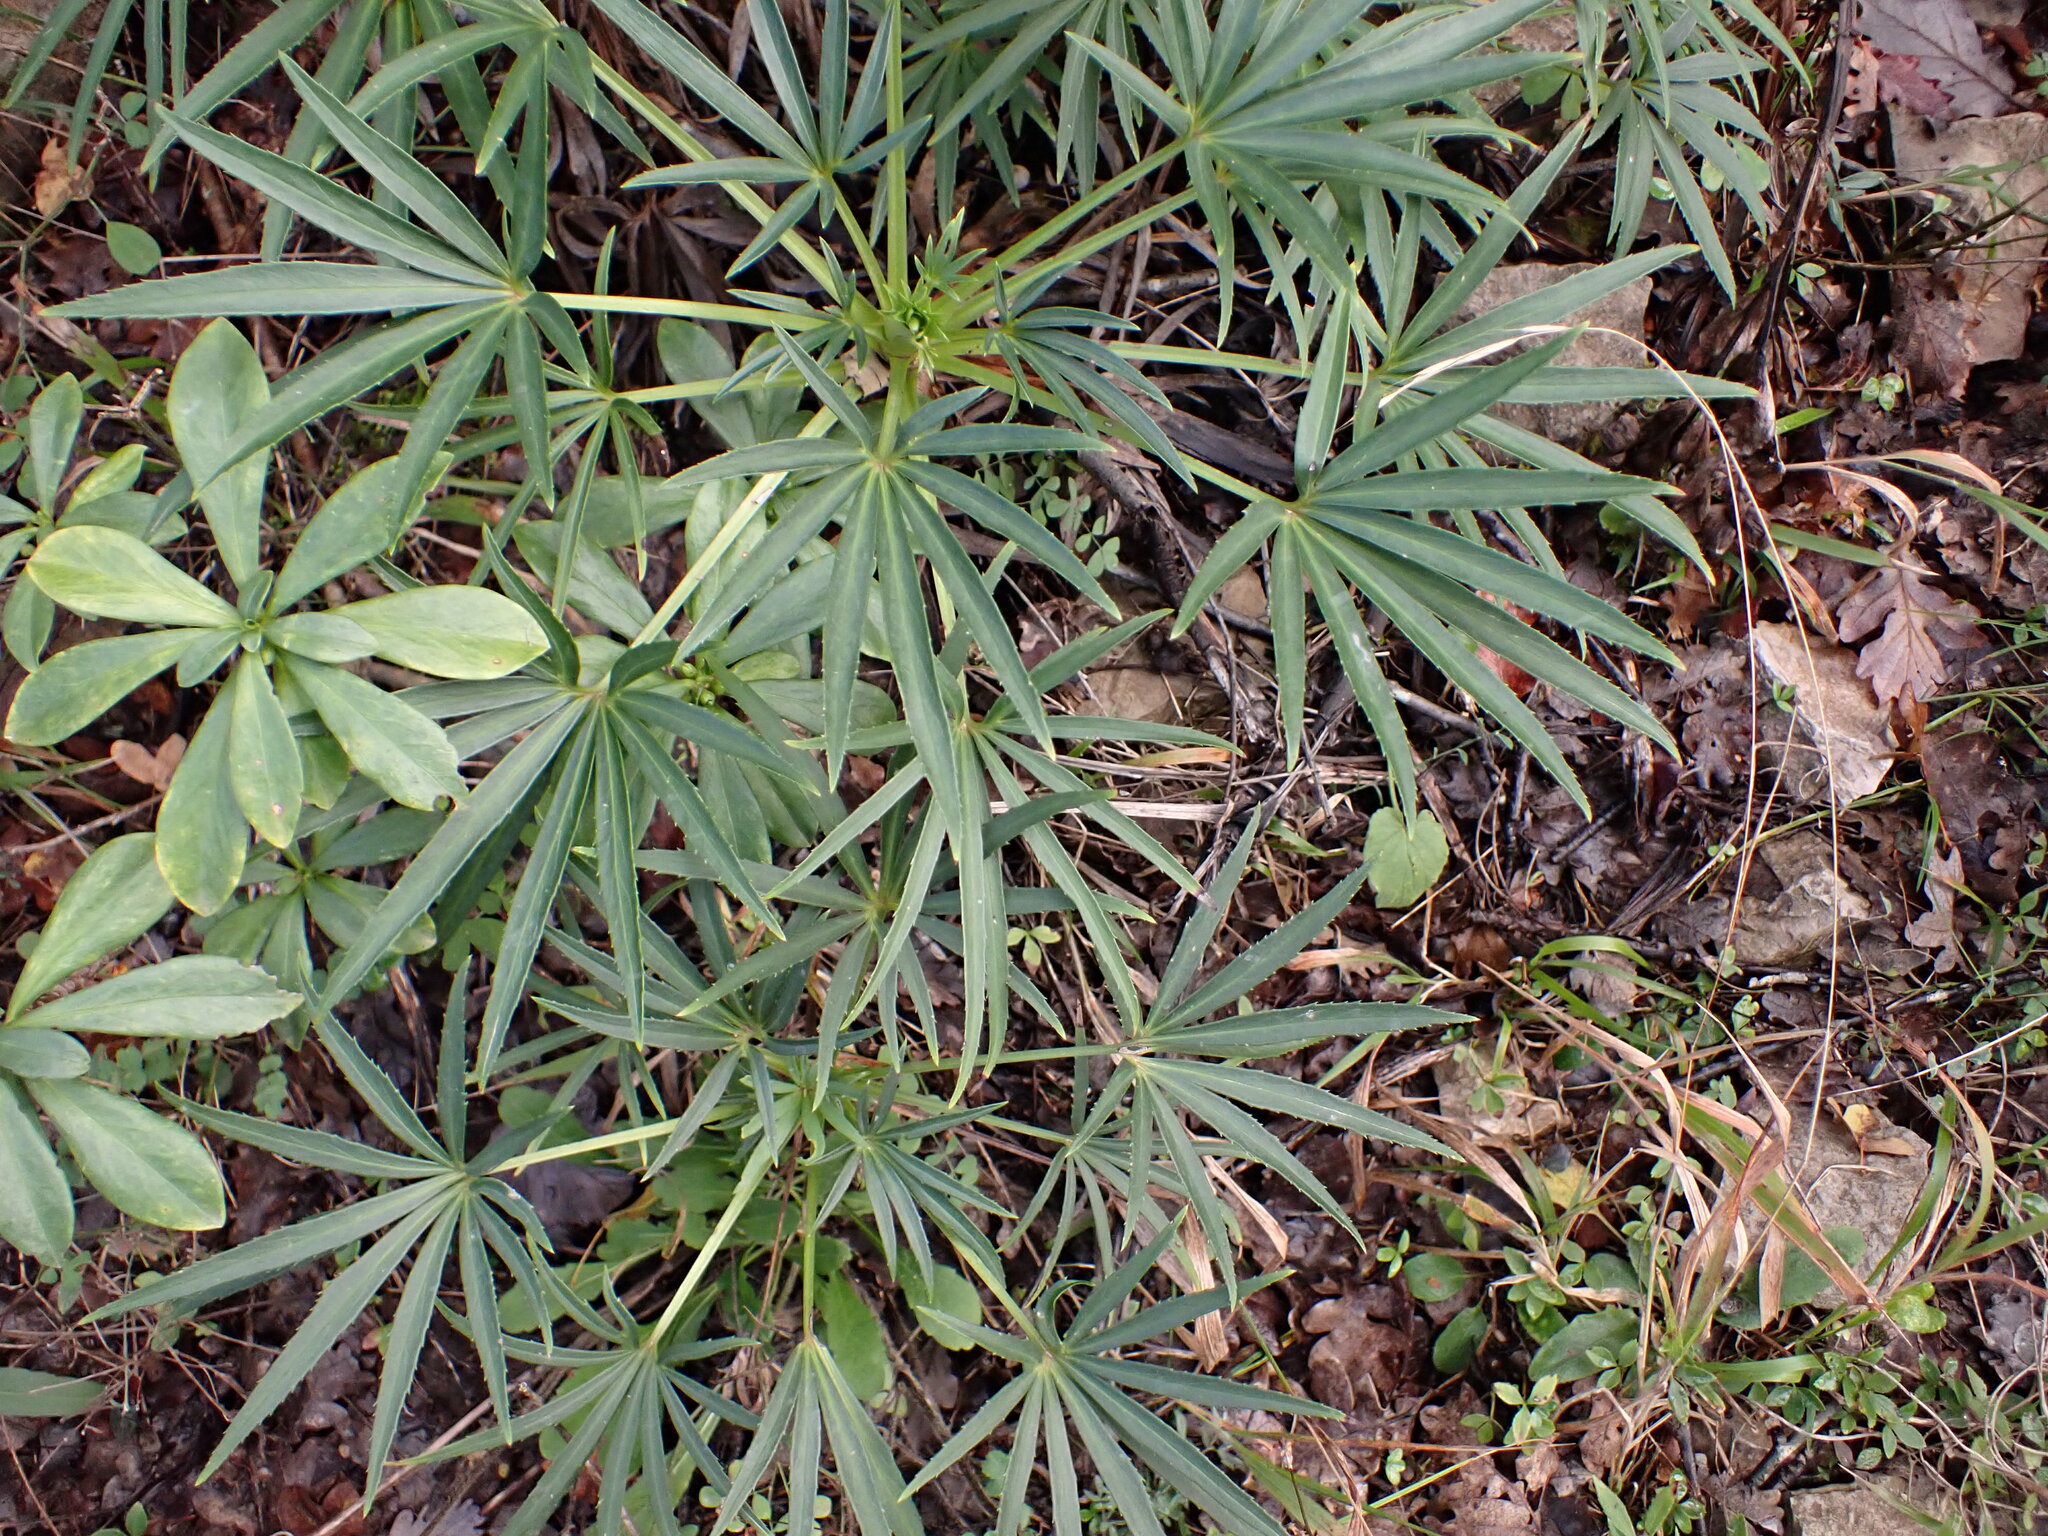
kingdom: Plantae
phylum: Tracheophyta
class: Magnoliopsida
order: Ranunculales
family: Ranunculaceae
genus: Helleborus
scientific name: Helleborus foetidus
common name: Stinking hellebore
